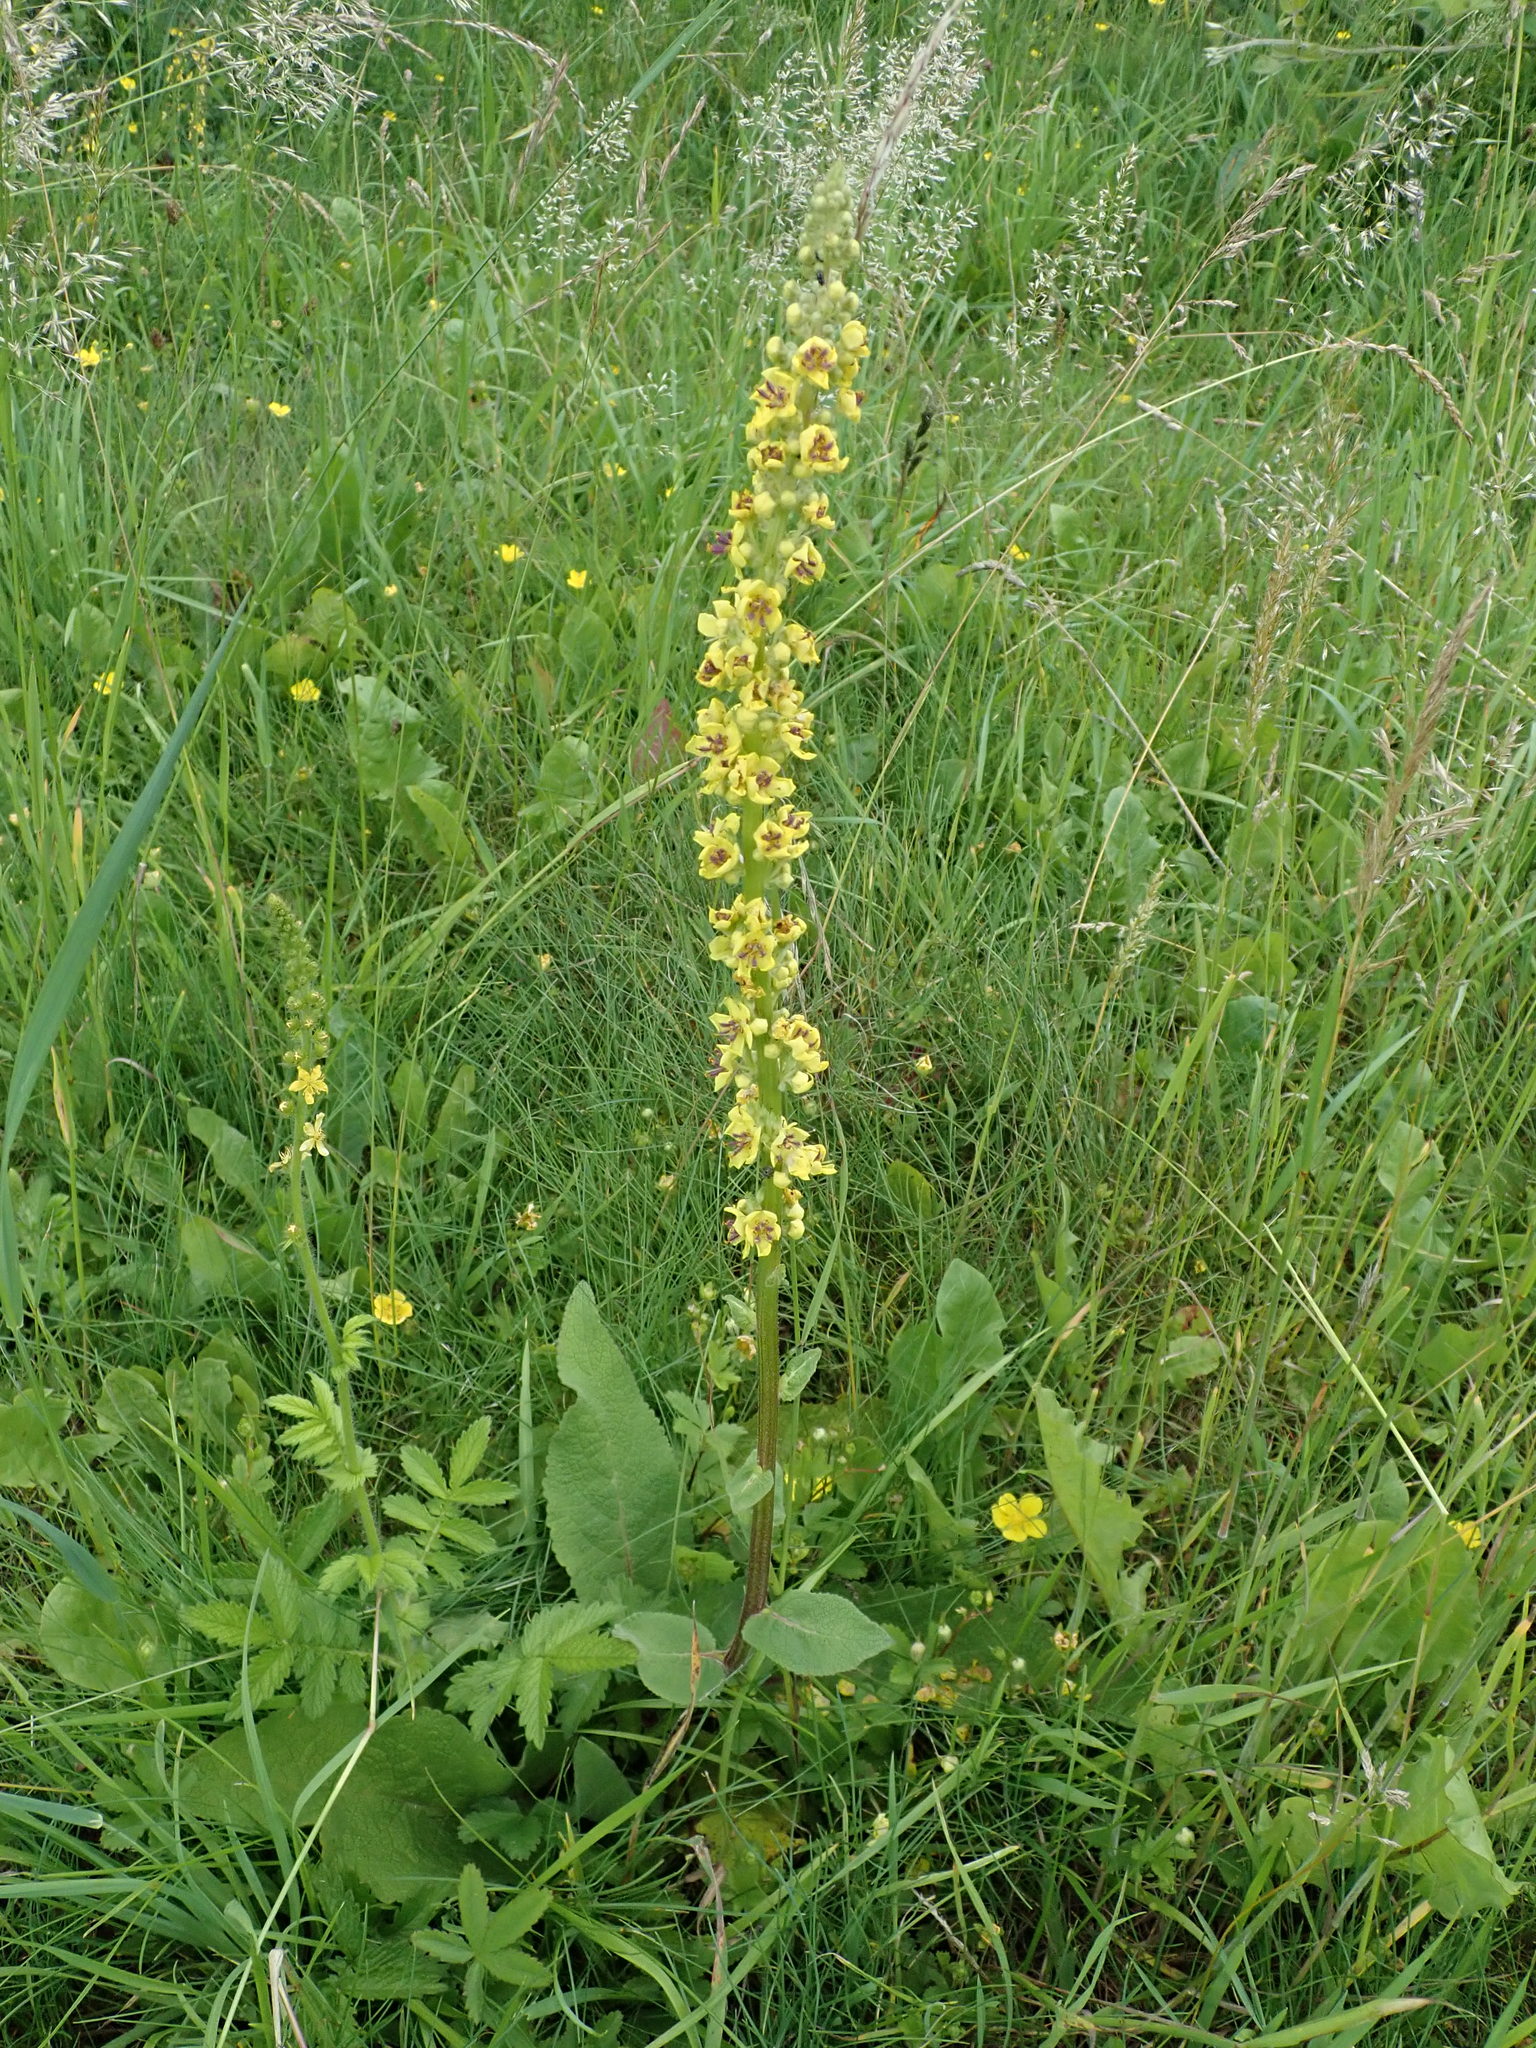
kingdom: Plantae
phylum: Tracheophyta
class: Magnoliopsida
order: Lamiales
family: Scrophulariaceae
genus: Verbascum
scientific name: Verbascum nigrum
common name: Dark mullein
